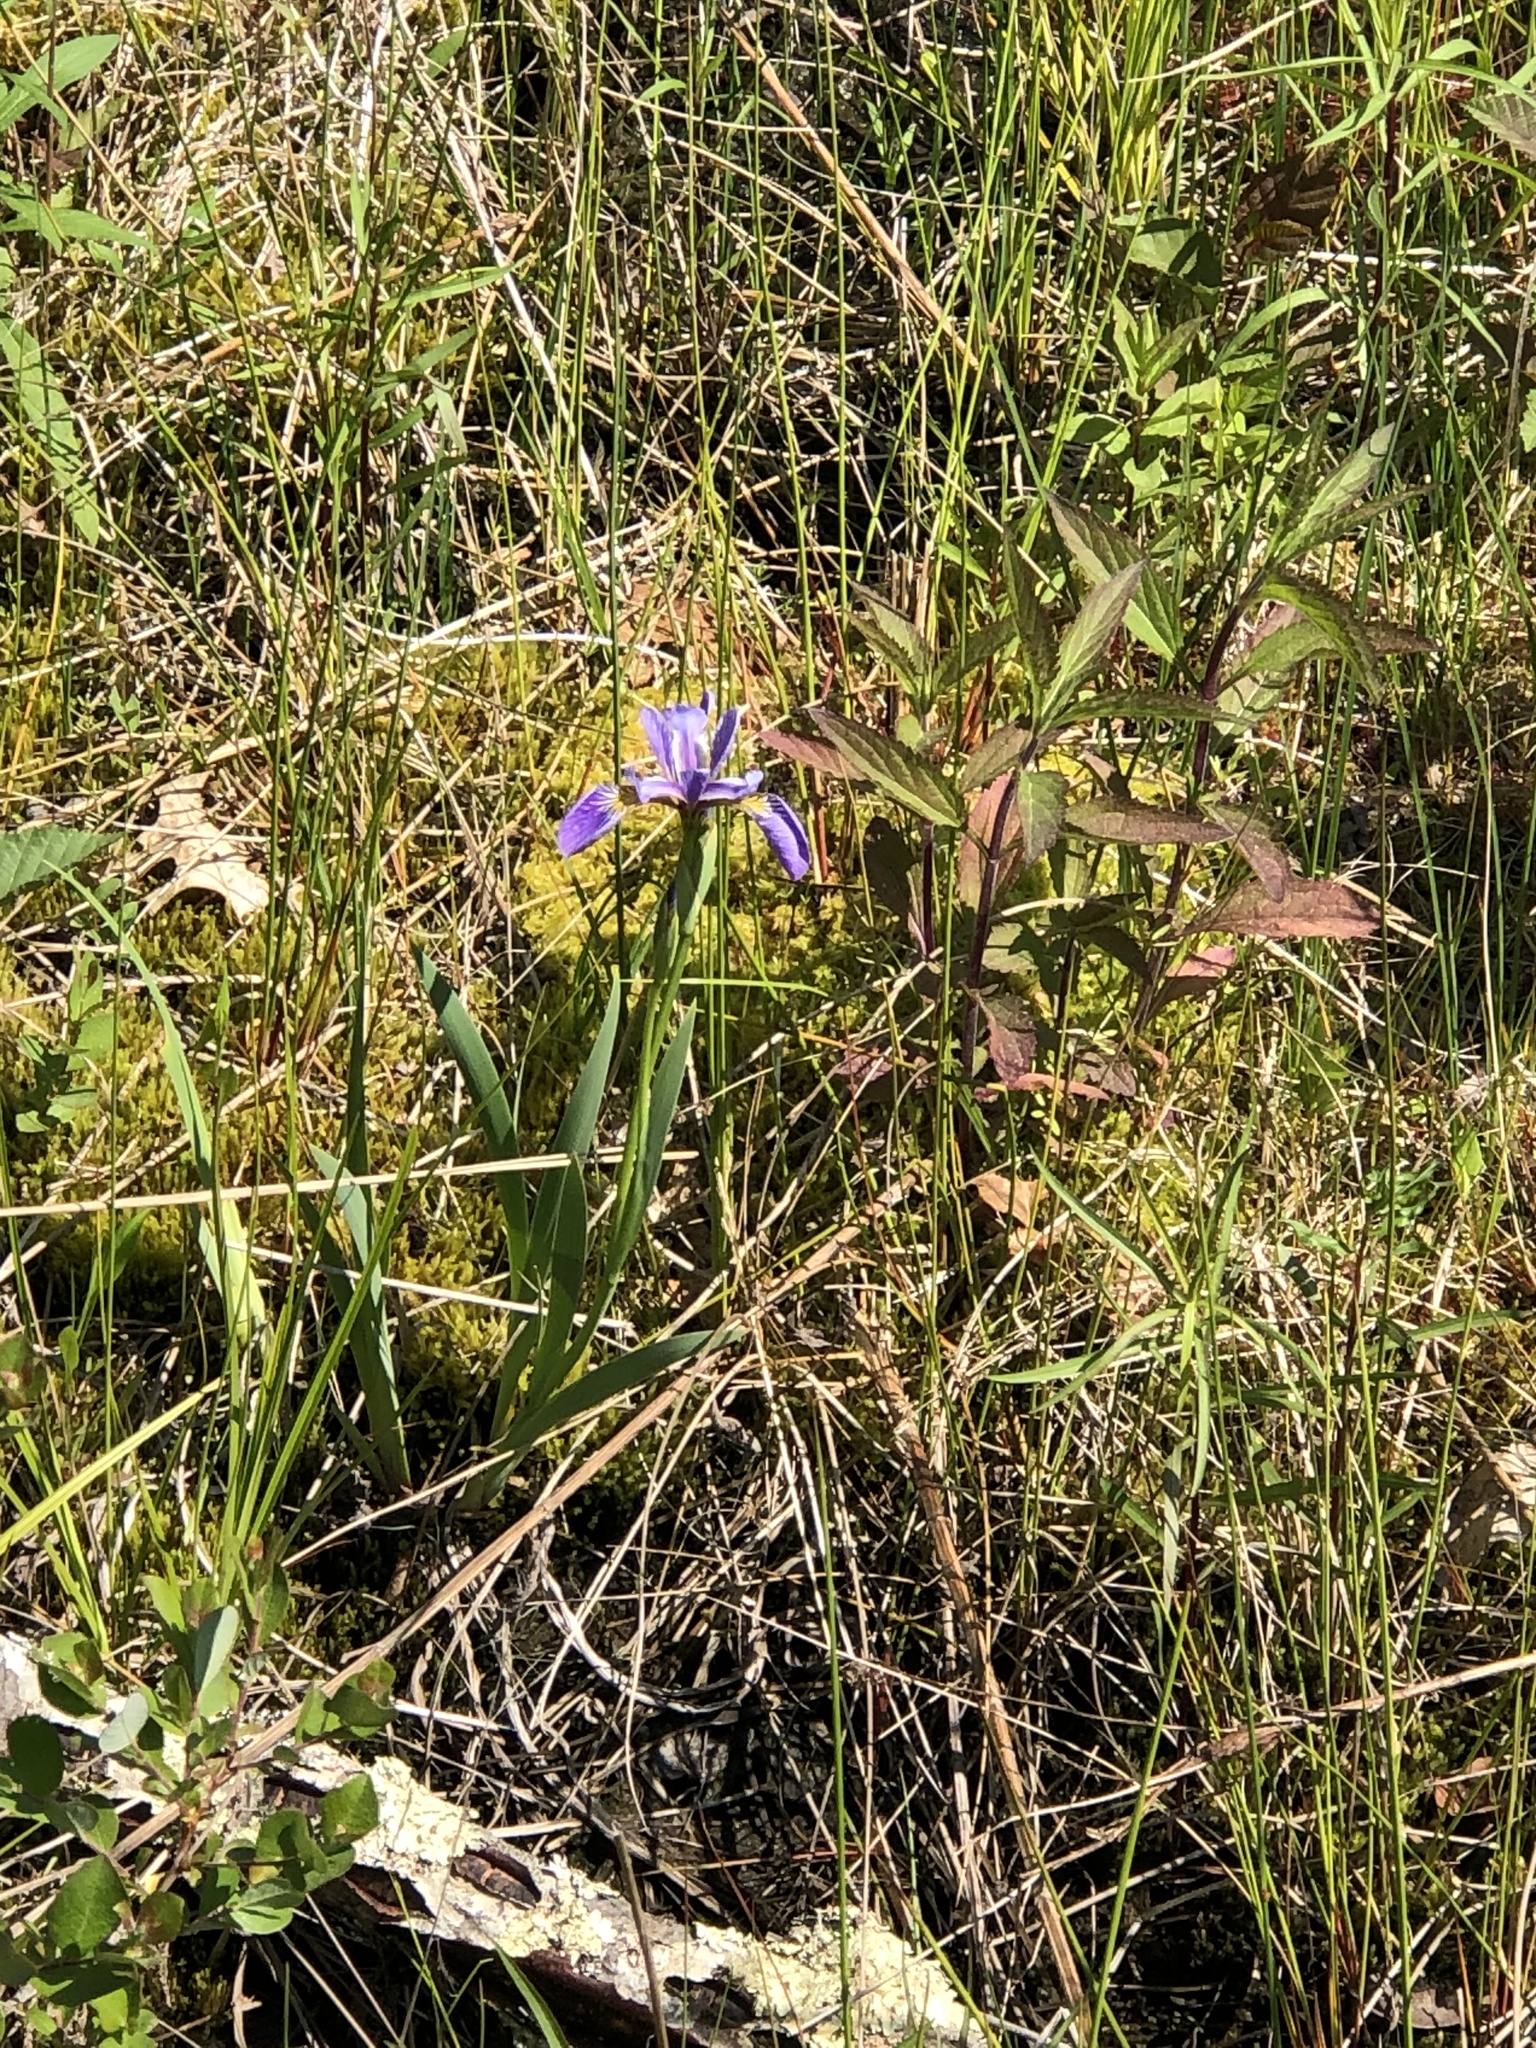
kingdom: Plantae
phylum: Tracheophyta
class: Liliopsida
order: Asparagales
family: Iridaceae
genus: Iris
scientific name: Iris versicolor
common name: Purple iris
